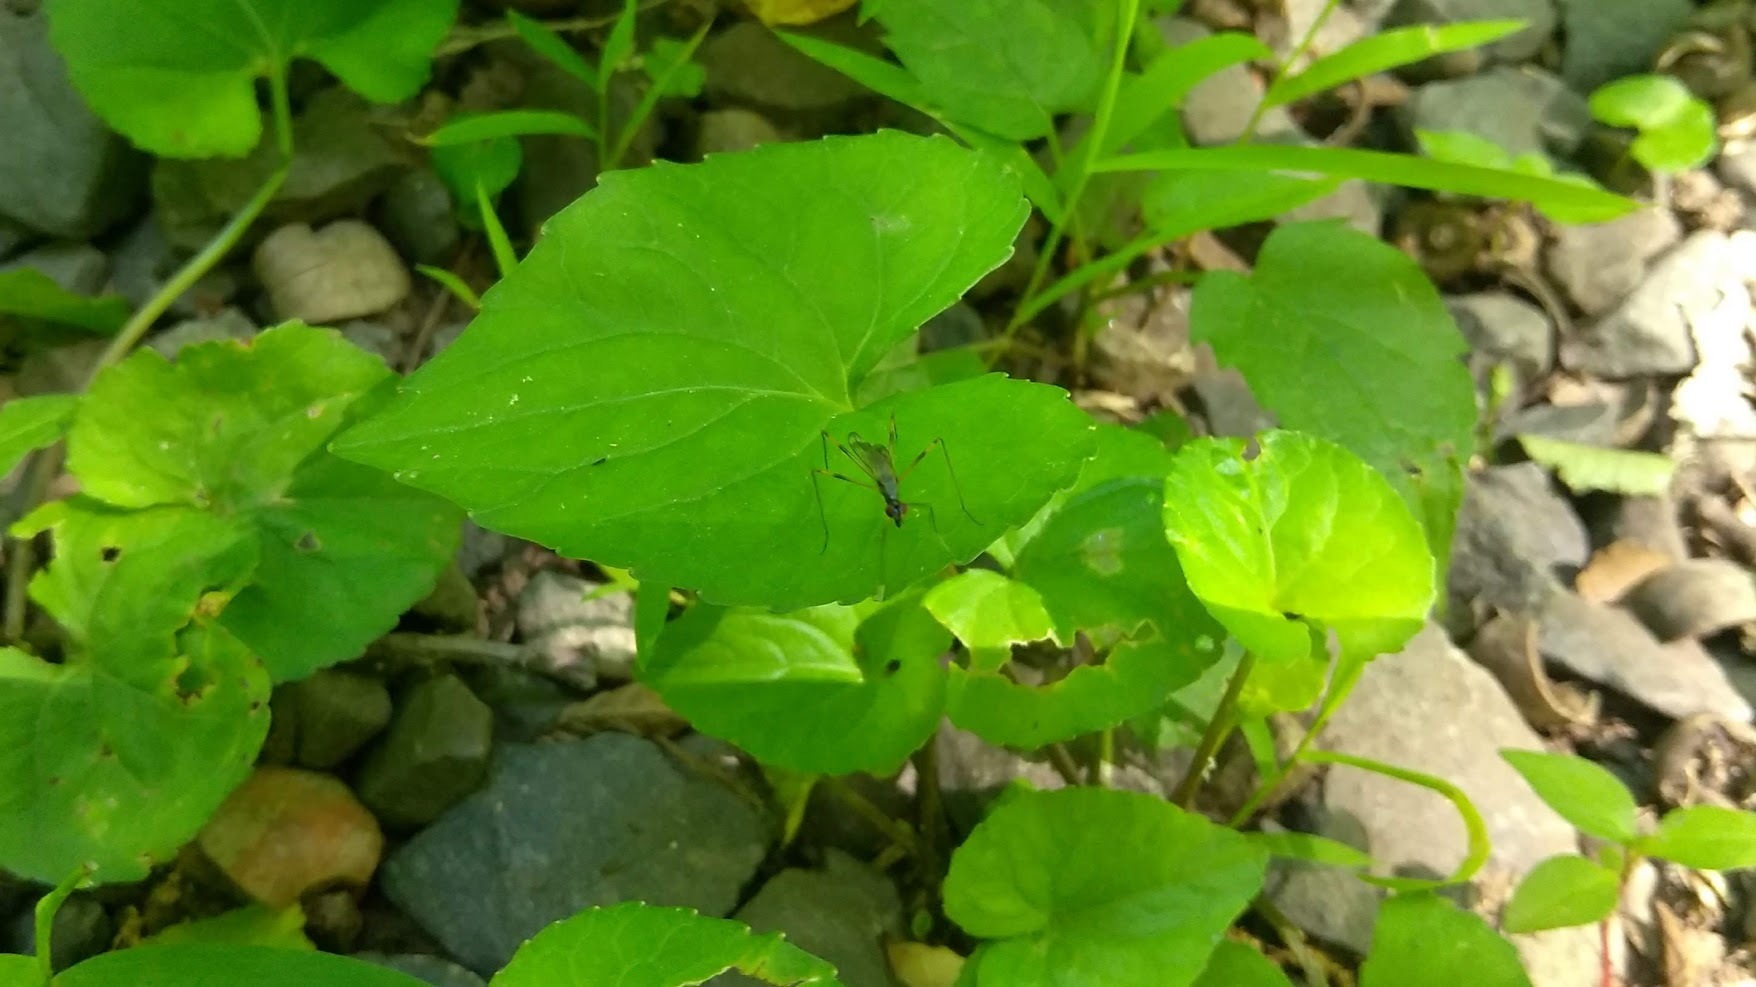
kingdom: Animalia
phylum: Arthropoda
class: Insecta
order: Diptera
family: Micropezidae
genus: Rainieria
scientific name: Rainieria antennaepes
